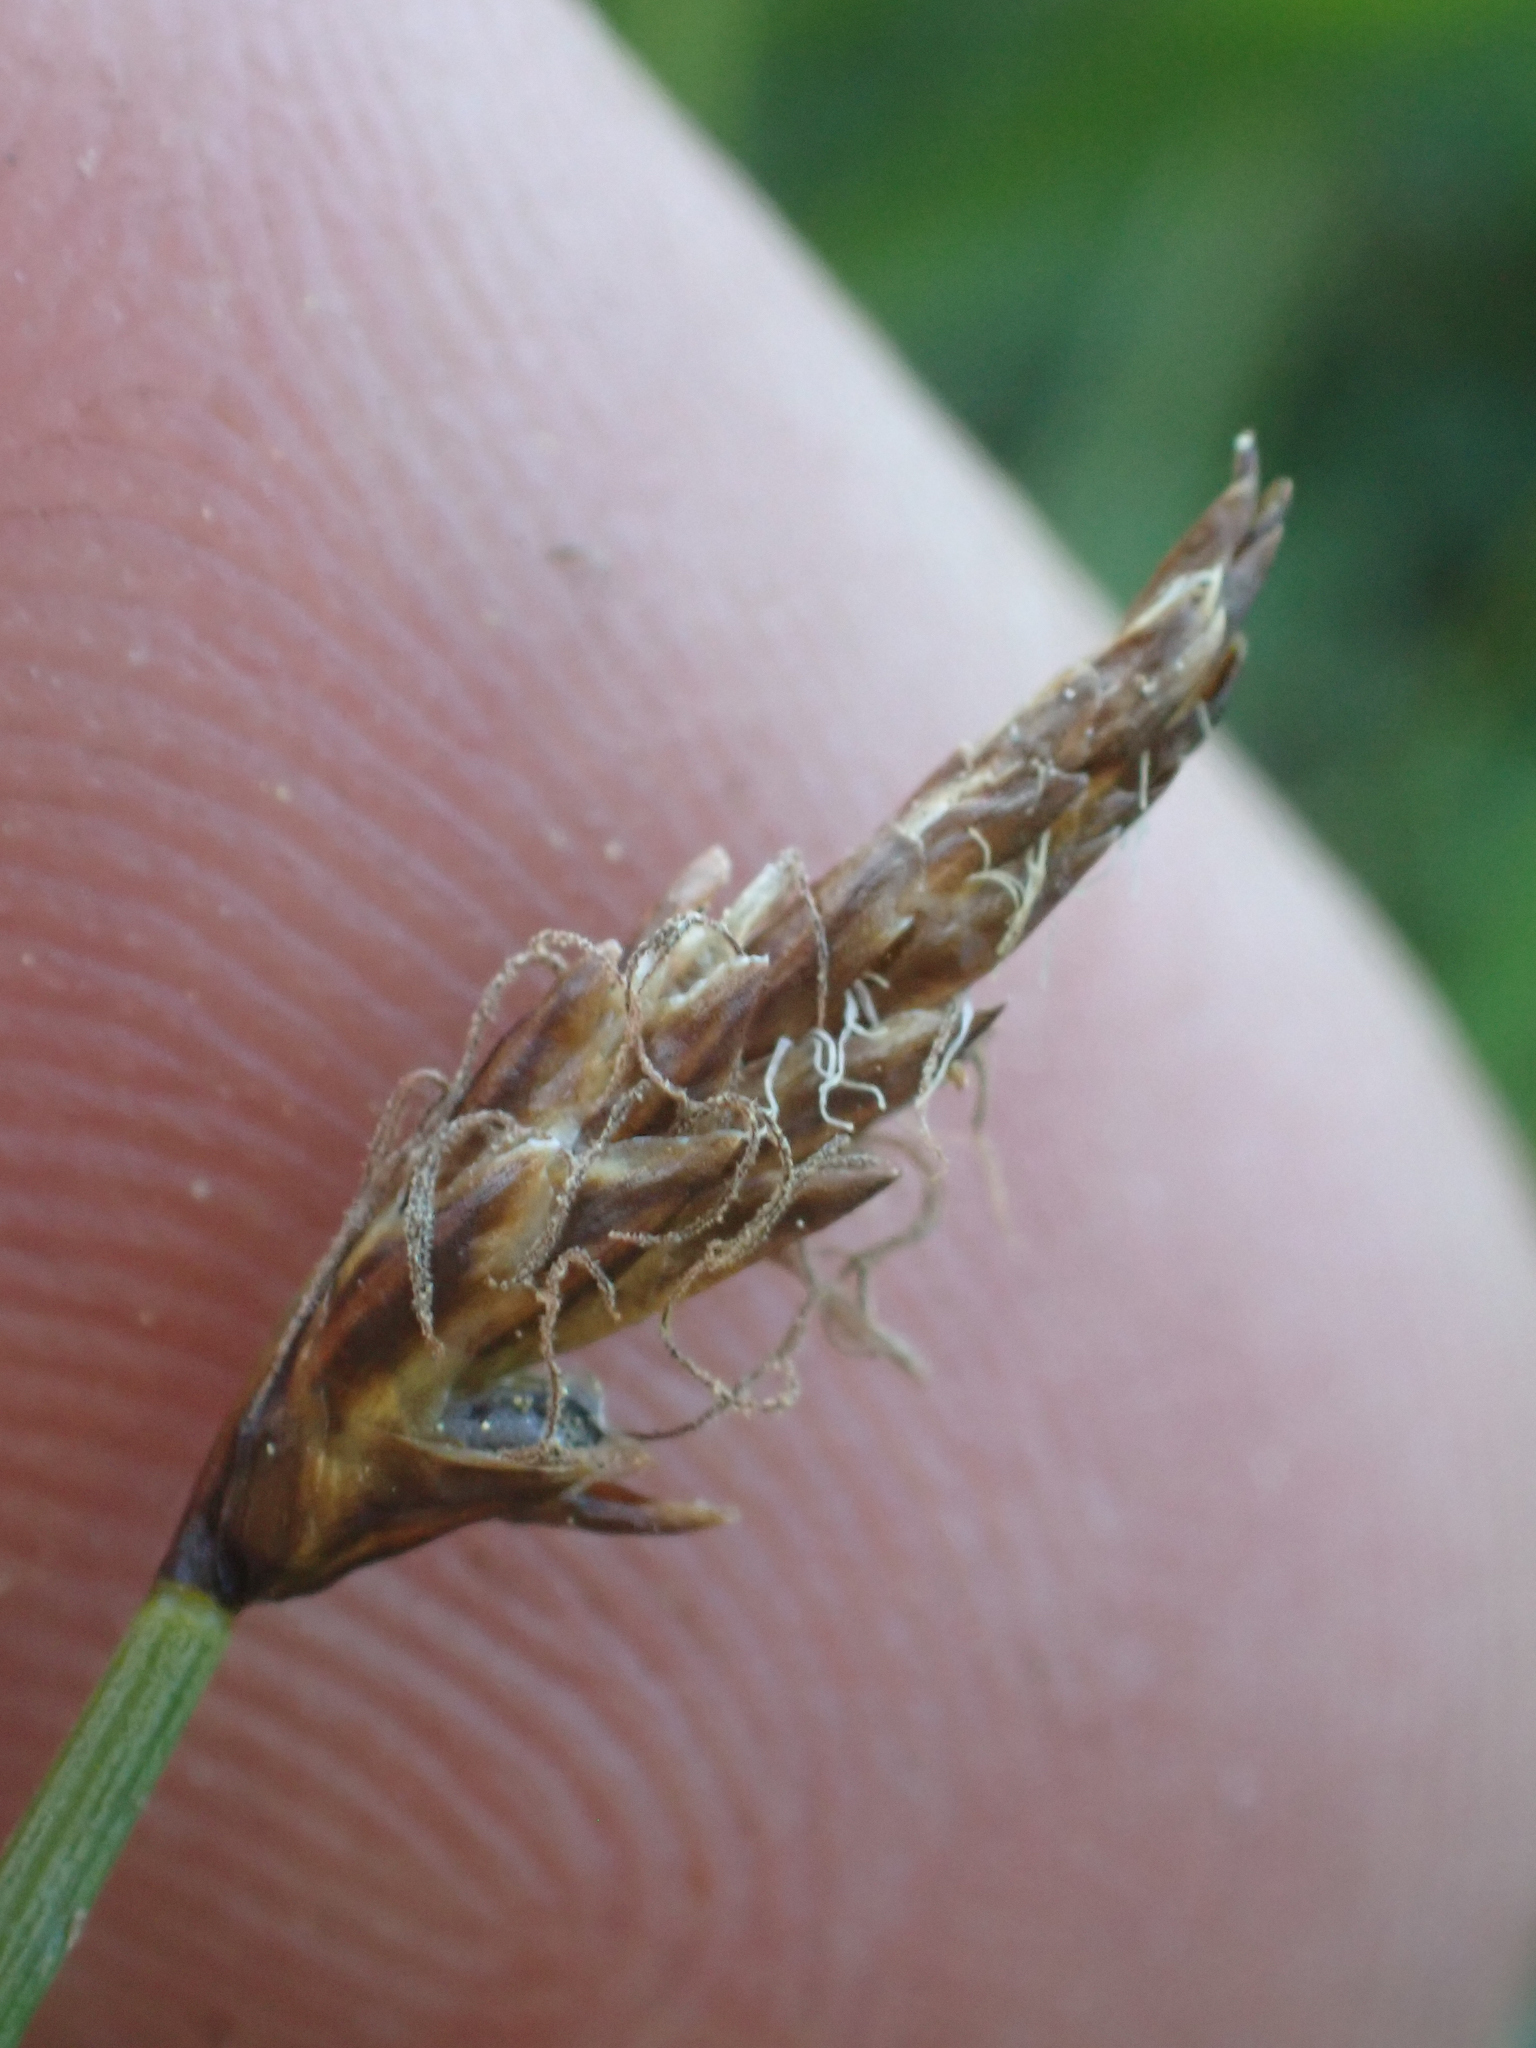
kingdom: Plantae
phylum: Tracheophyta
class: Liliopsida
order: Poales
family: Cyperaceae
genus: Carex
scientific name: Carex filifolia
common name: Threadleaf sedge
